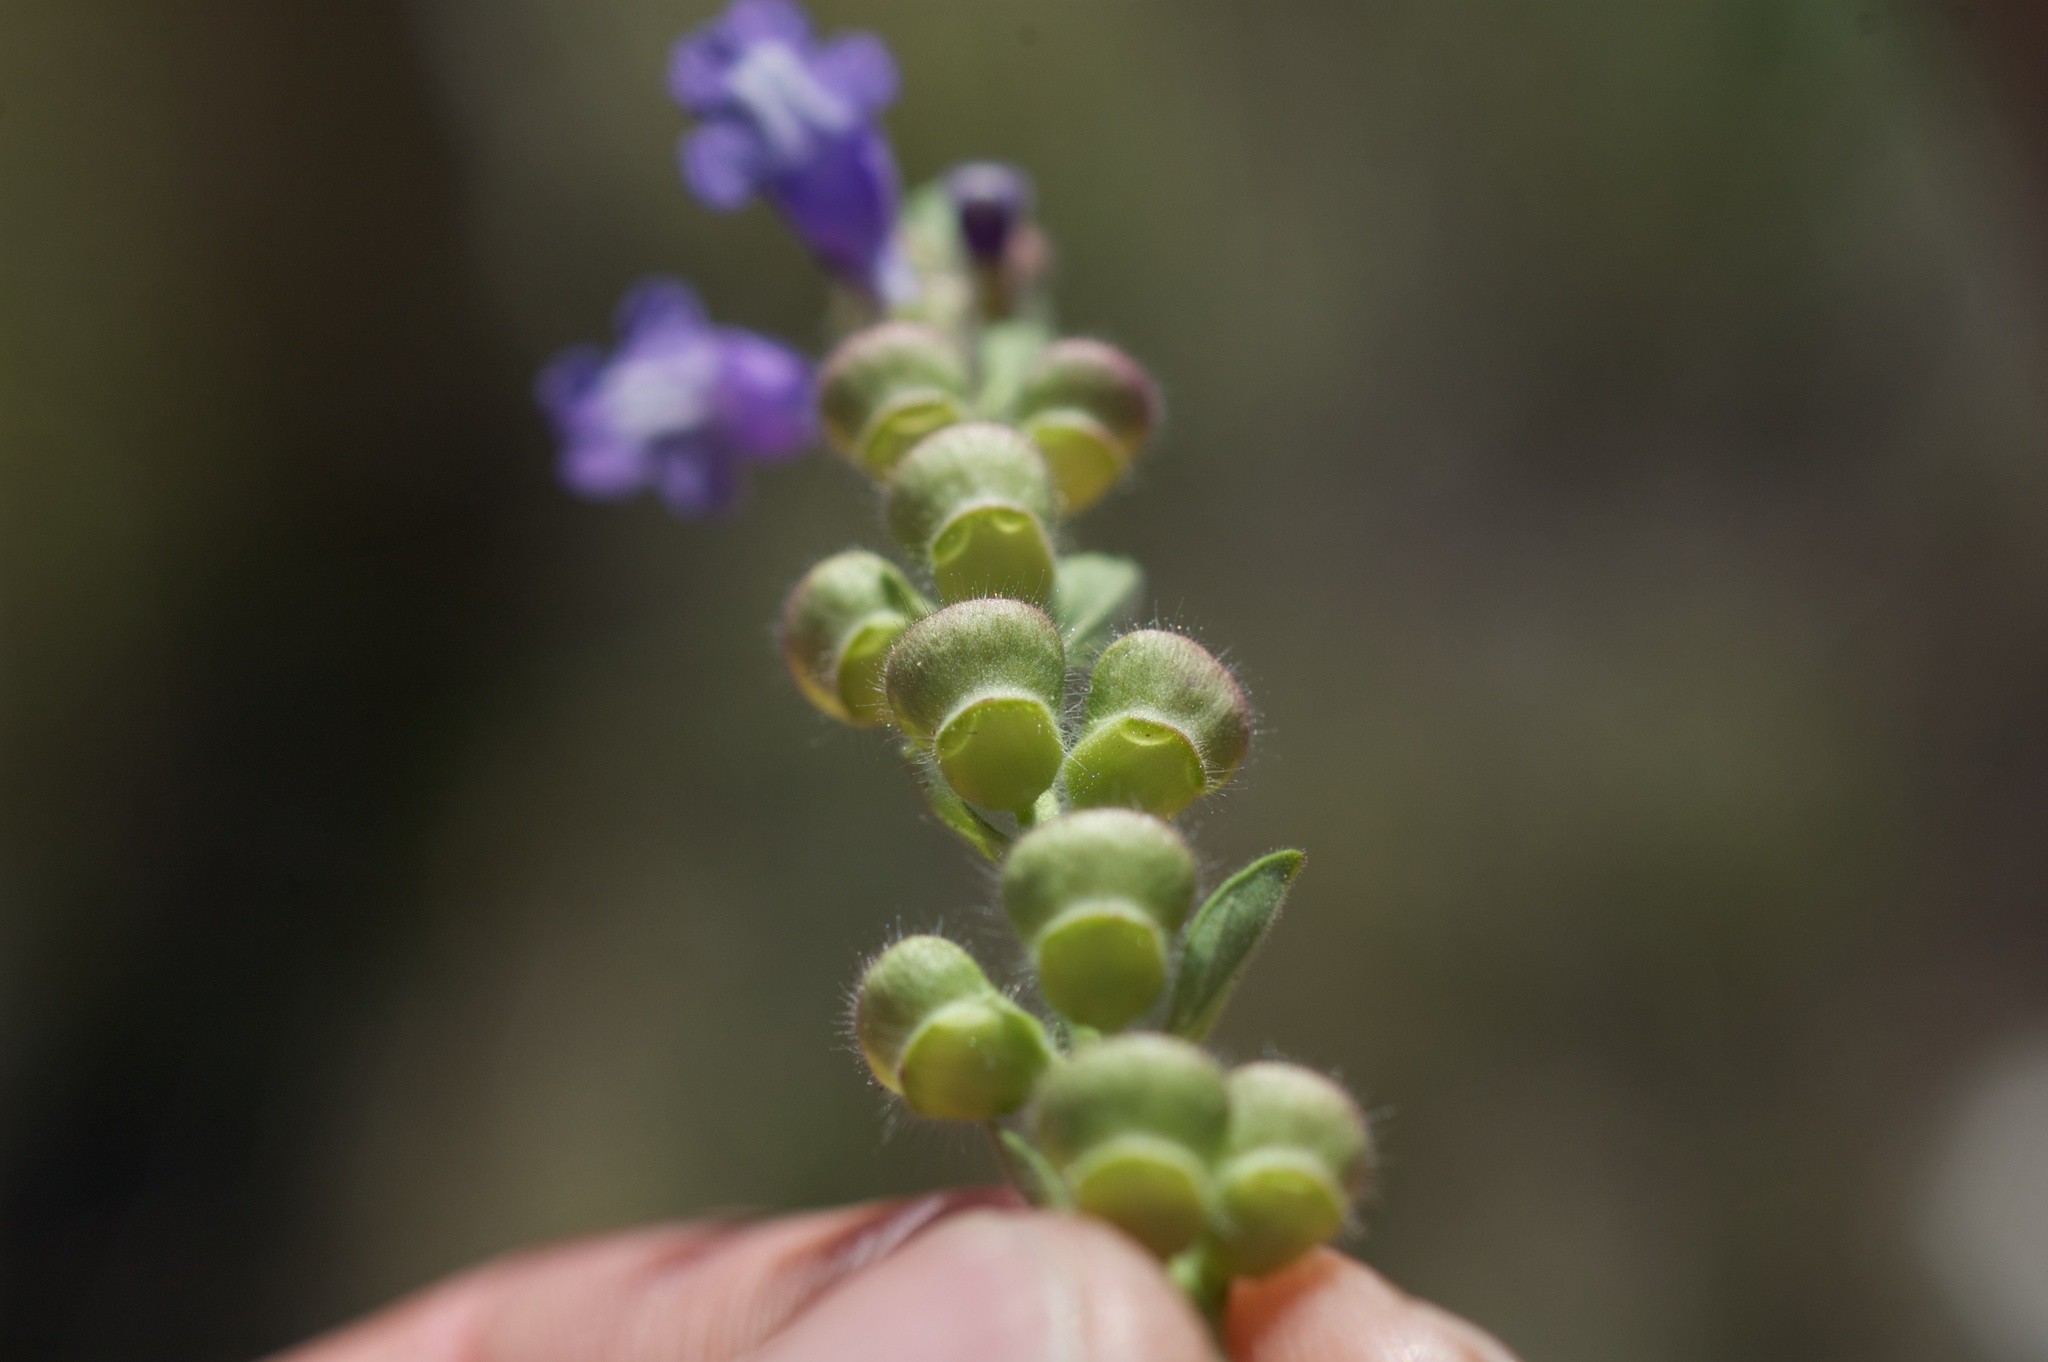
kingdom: Plantae
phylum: Tracheophyta
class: Magnoliopsida
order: Lamiales
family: Lamiaceae
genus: Scutellaria
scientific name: Scutellaria drummondii
